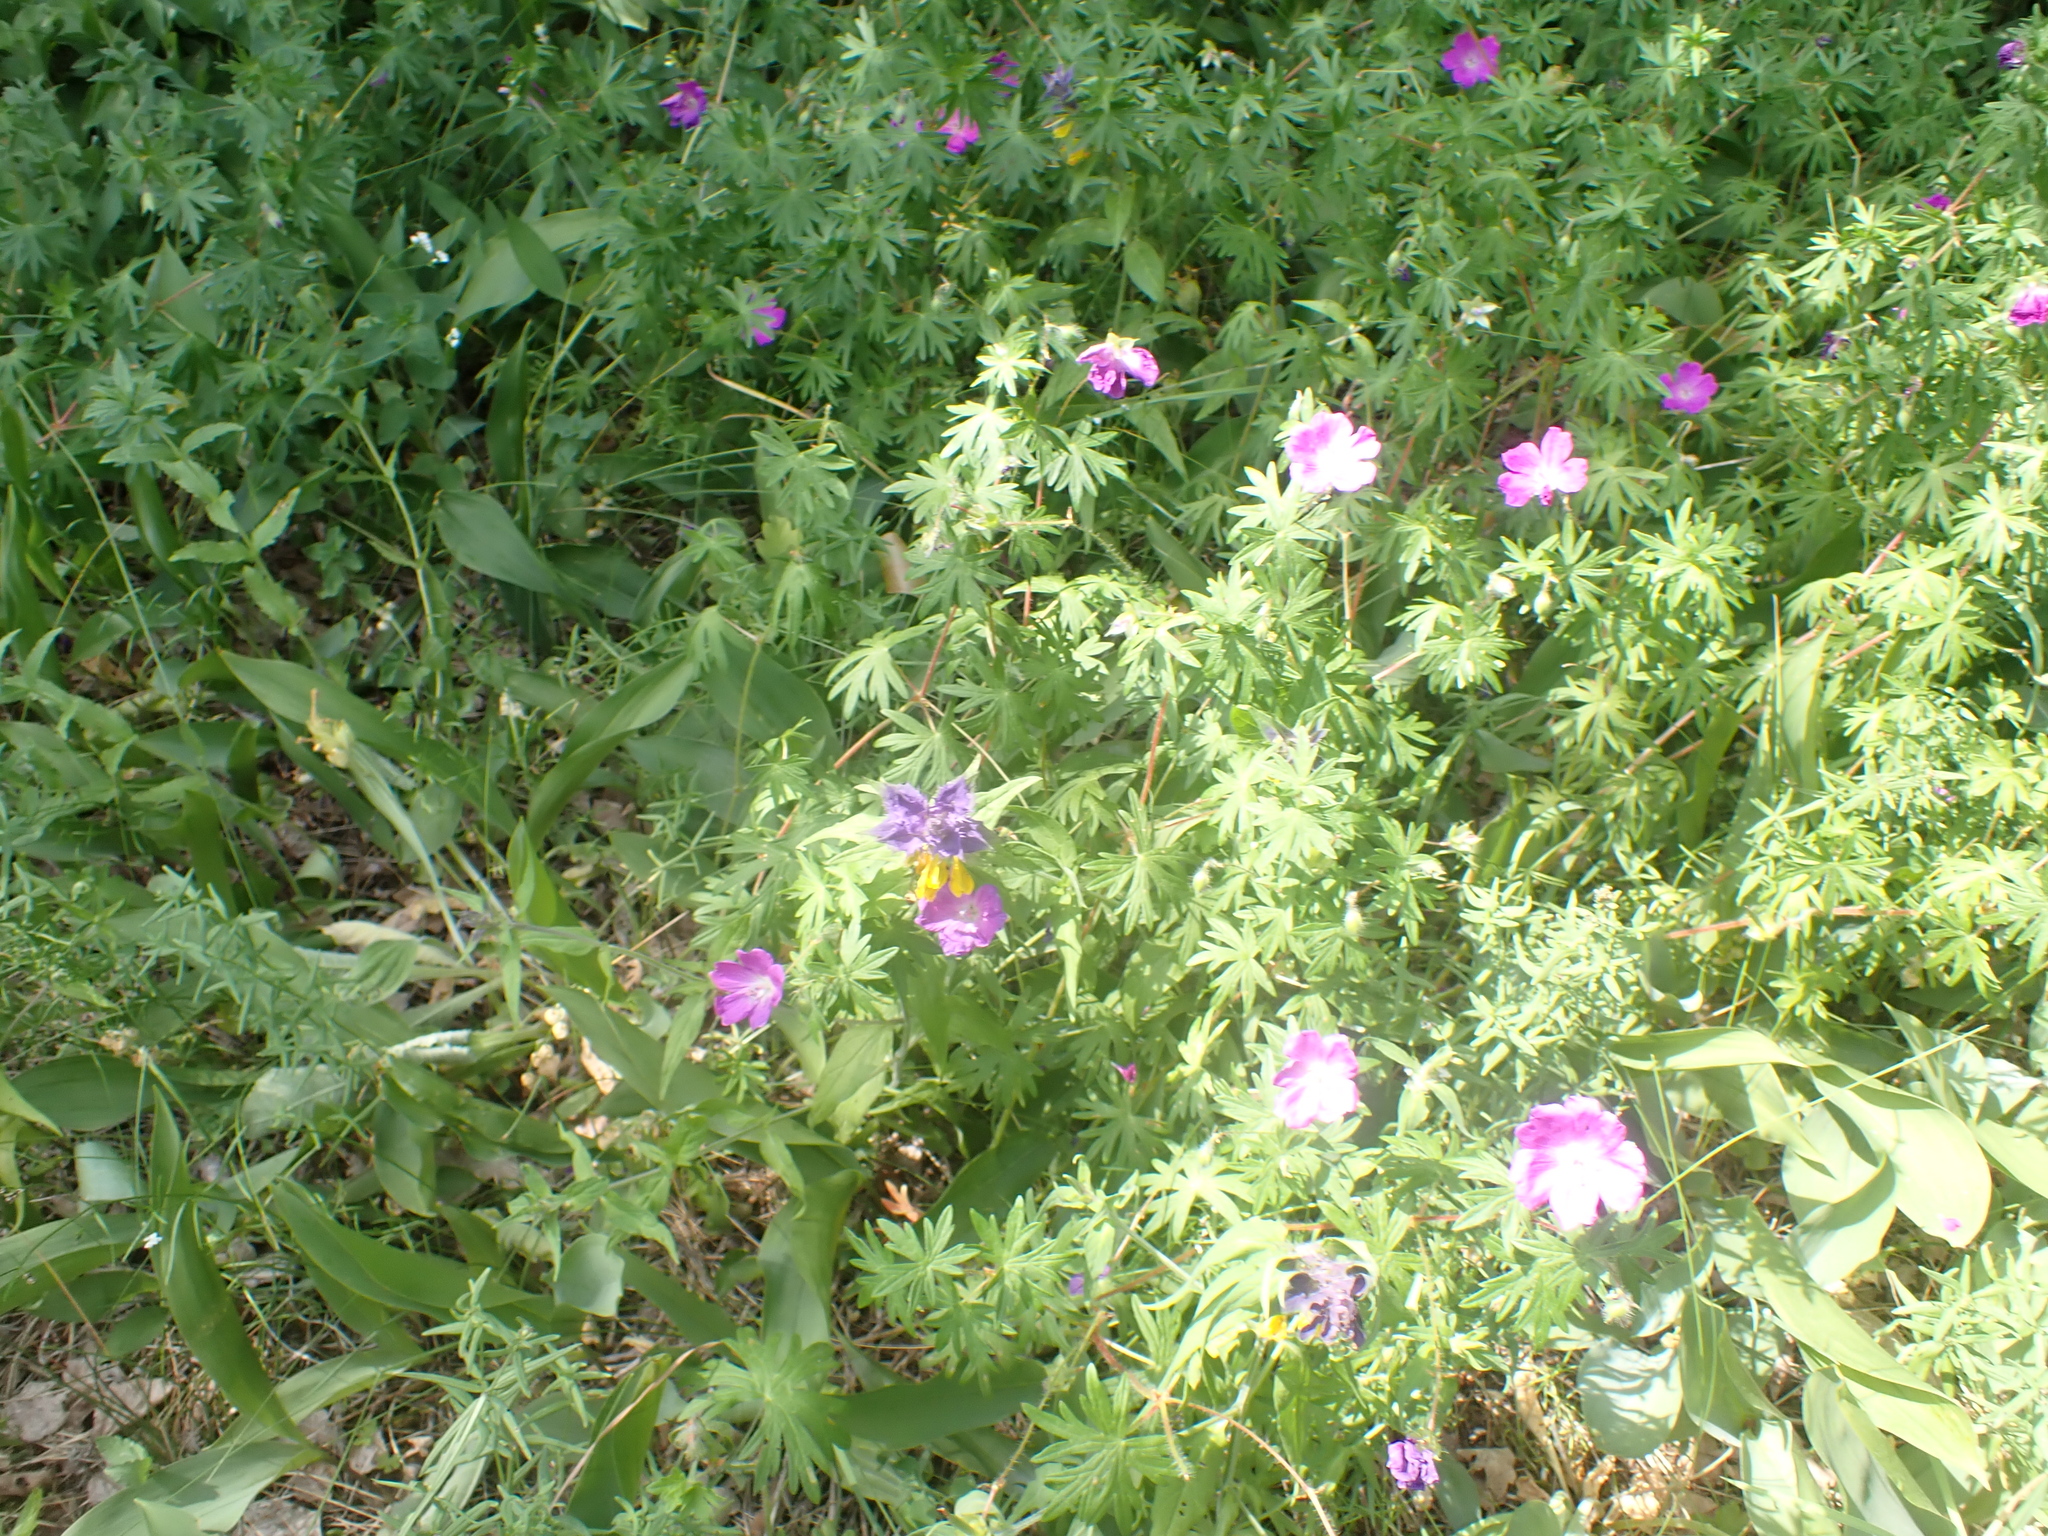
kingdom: Plantae
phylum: Tracheophyta
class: Magnoliopsida
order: Lamiales
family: Orobanchaceae
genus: Melampyrum
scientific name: Melampyrum nemorosum
